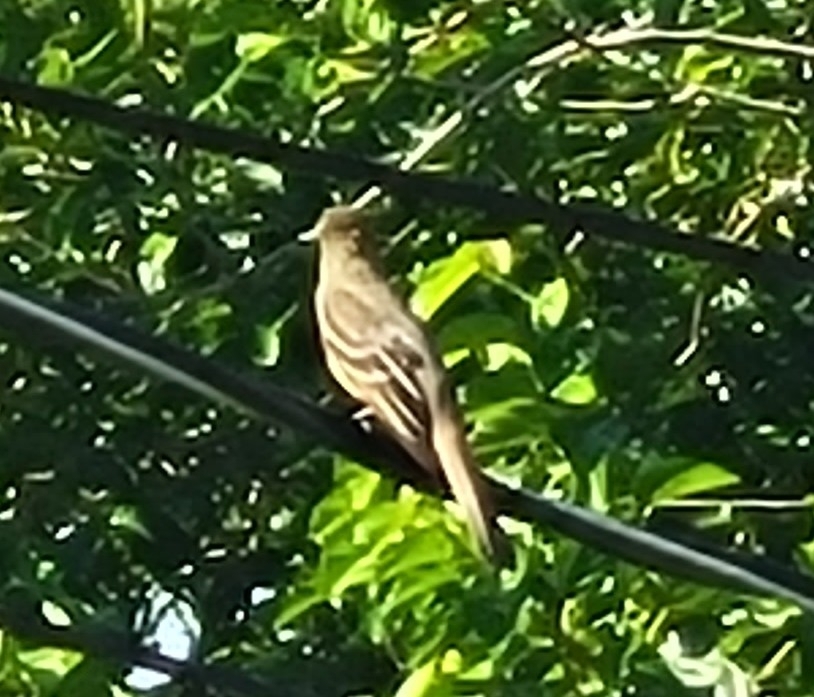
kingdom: Animalia
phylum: Chordata
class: Aves
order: Passeriformes
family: Tyrannidae
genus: Myiarchus
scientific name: Myiarchus crinitus
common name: Great crested flycatcher
